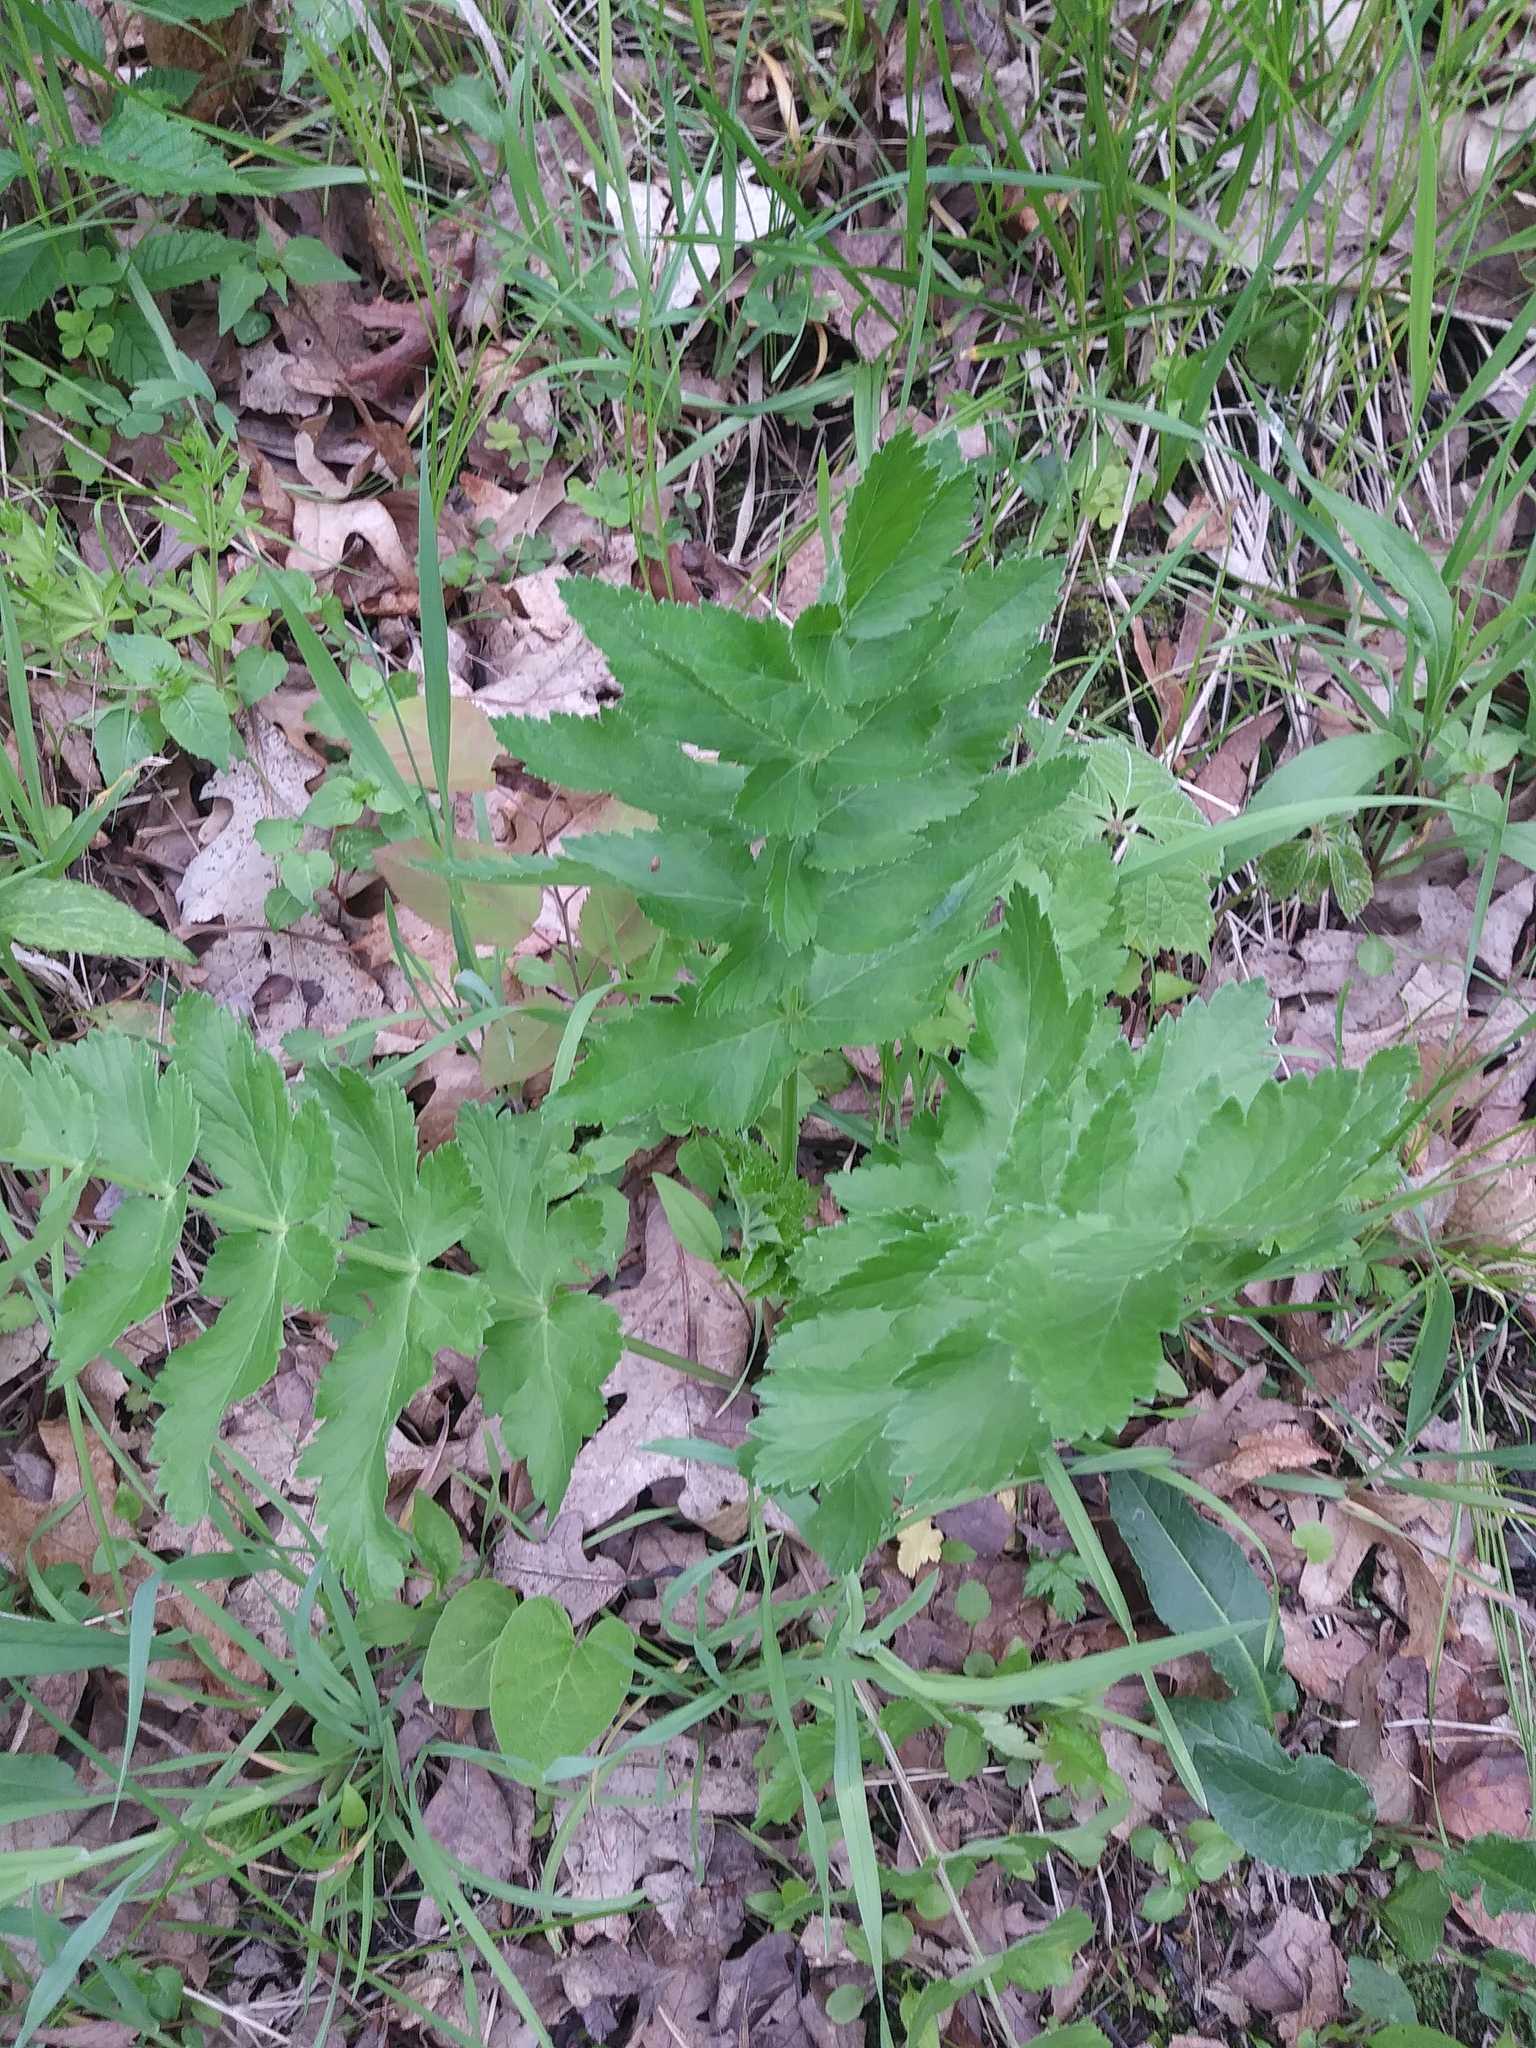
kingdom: Plantae
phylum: Tracheophyta
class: Magnoliopsida
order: Apiales
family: Apiaceae
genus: Pastinaca
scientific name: Pastinaca sativa
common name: Wild parsnip
